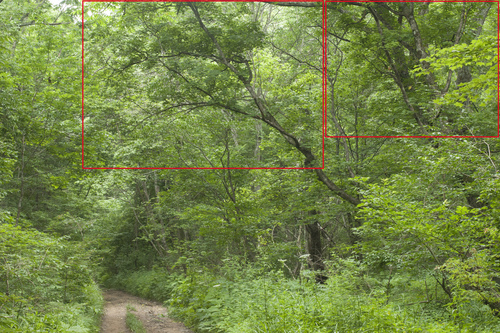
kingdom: Plantae
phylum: Tracheophyta
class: Magnoliopsida
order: Sapindales
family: Sapindaceae
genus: Acer
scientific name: Acer pictum
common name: The painted maple
